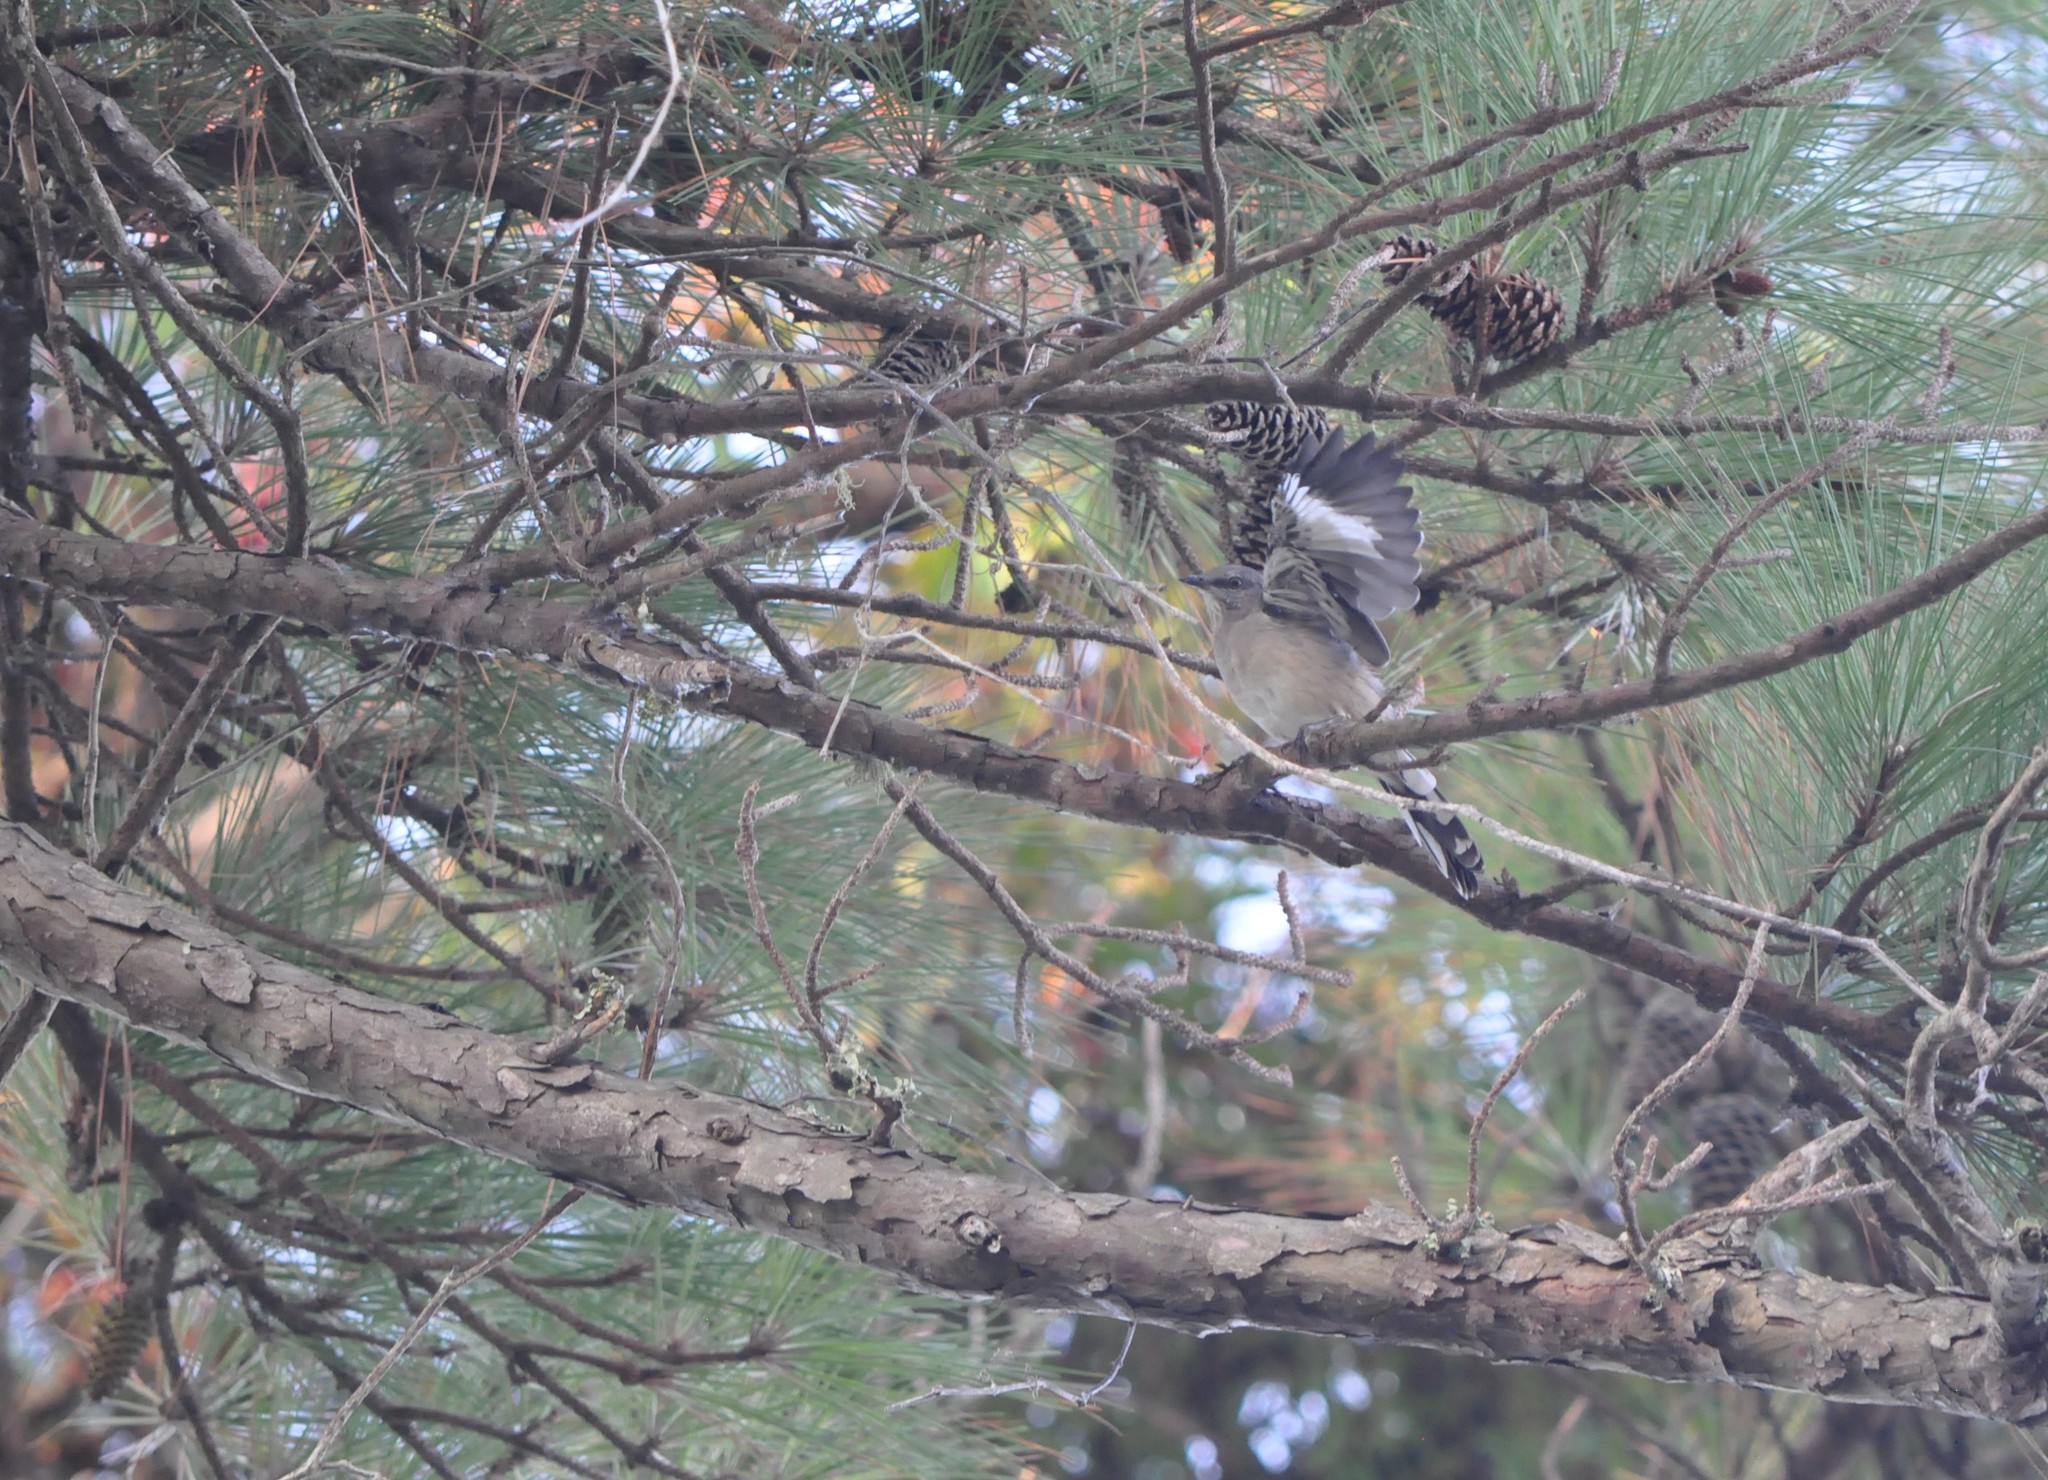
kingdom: Animalia
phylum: Chordata
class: Aves
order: Passeriformes
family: Mimidae
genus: Mimus
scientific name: Mimus polyglottos
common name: Northern mockingbird
